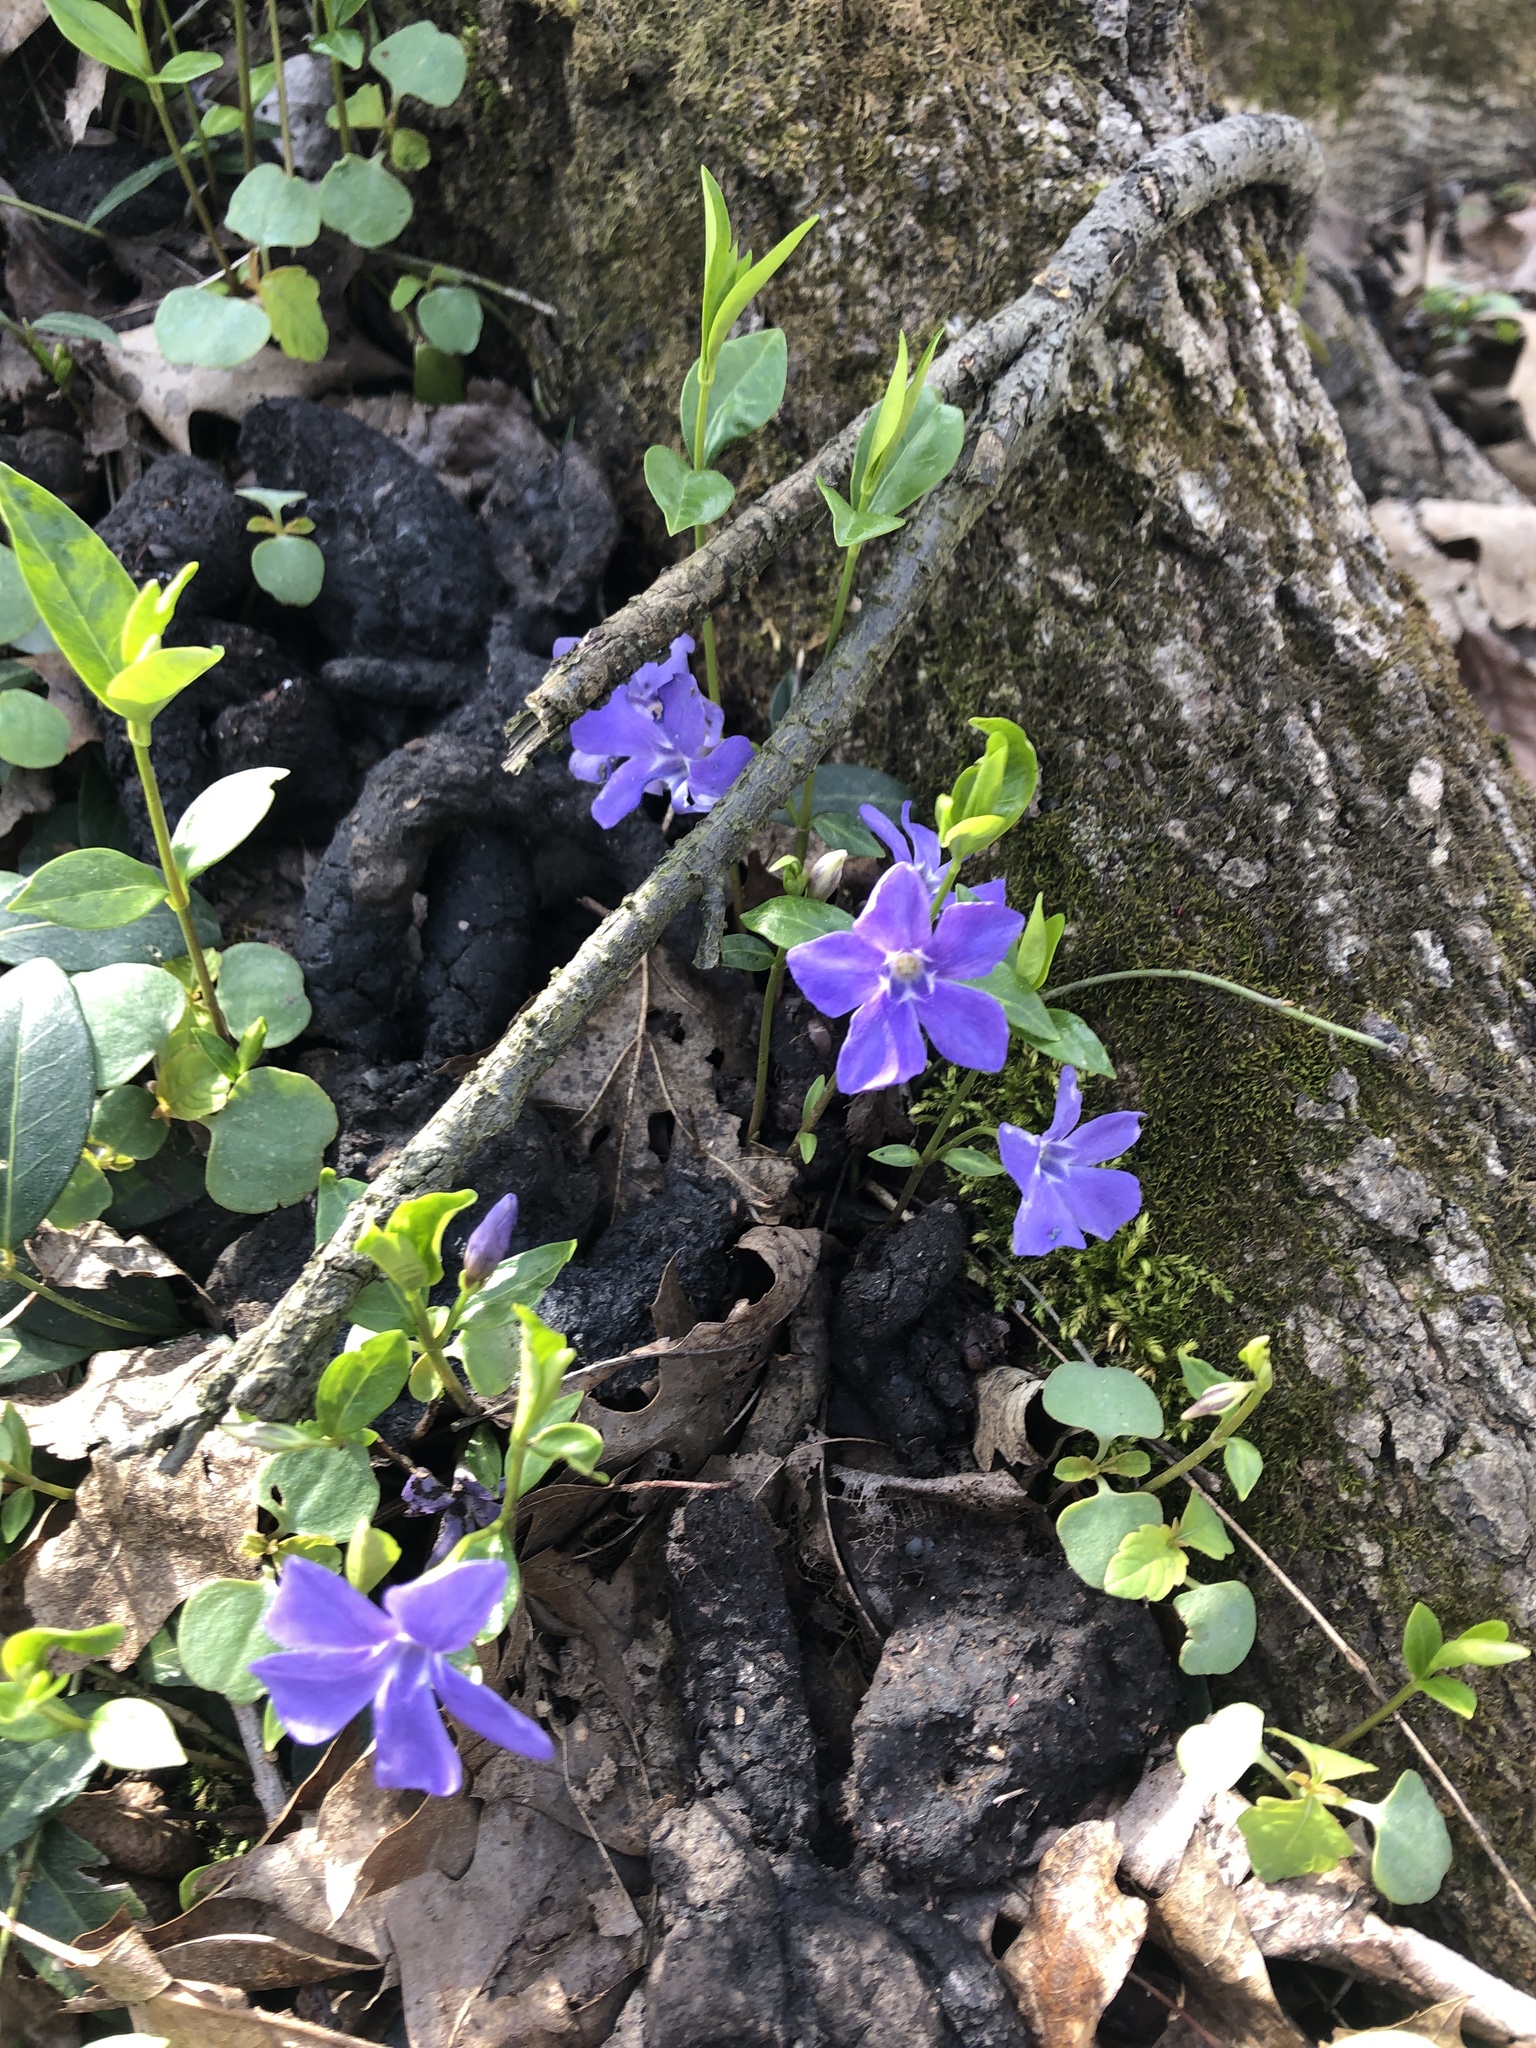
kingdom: Plantae
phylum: Tracheophyta
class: Magnoliopsida
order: Gentianales
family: Apocynaceae
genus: Vinca
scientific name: Vinca minor
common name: Lesser periwinkle
